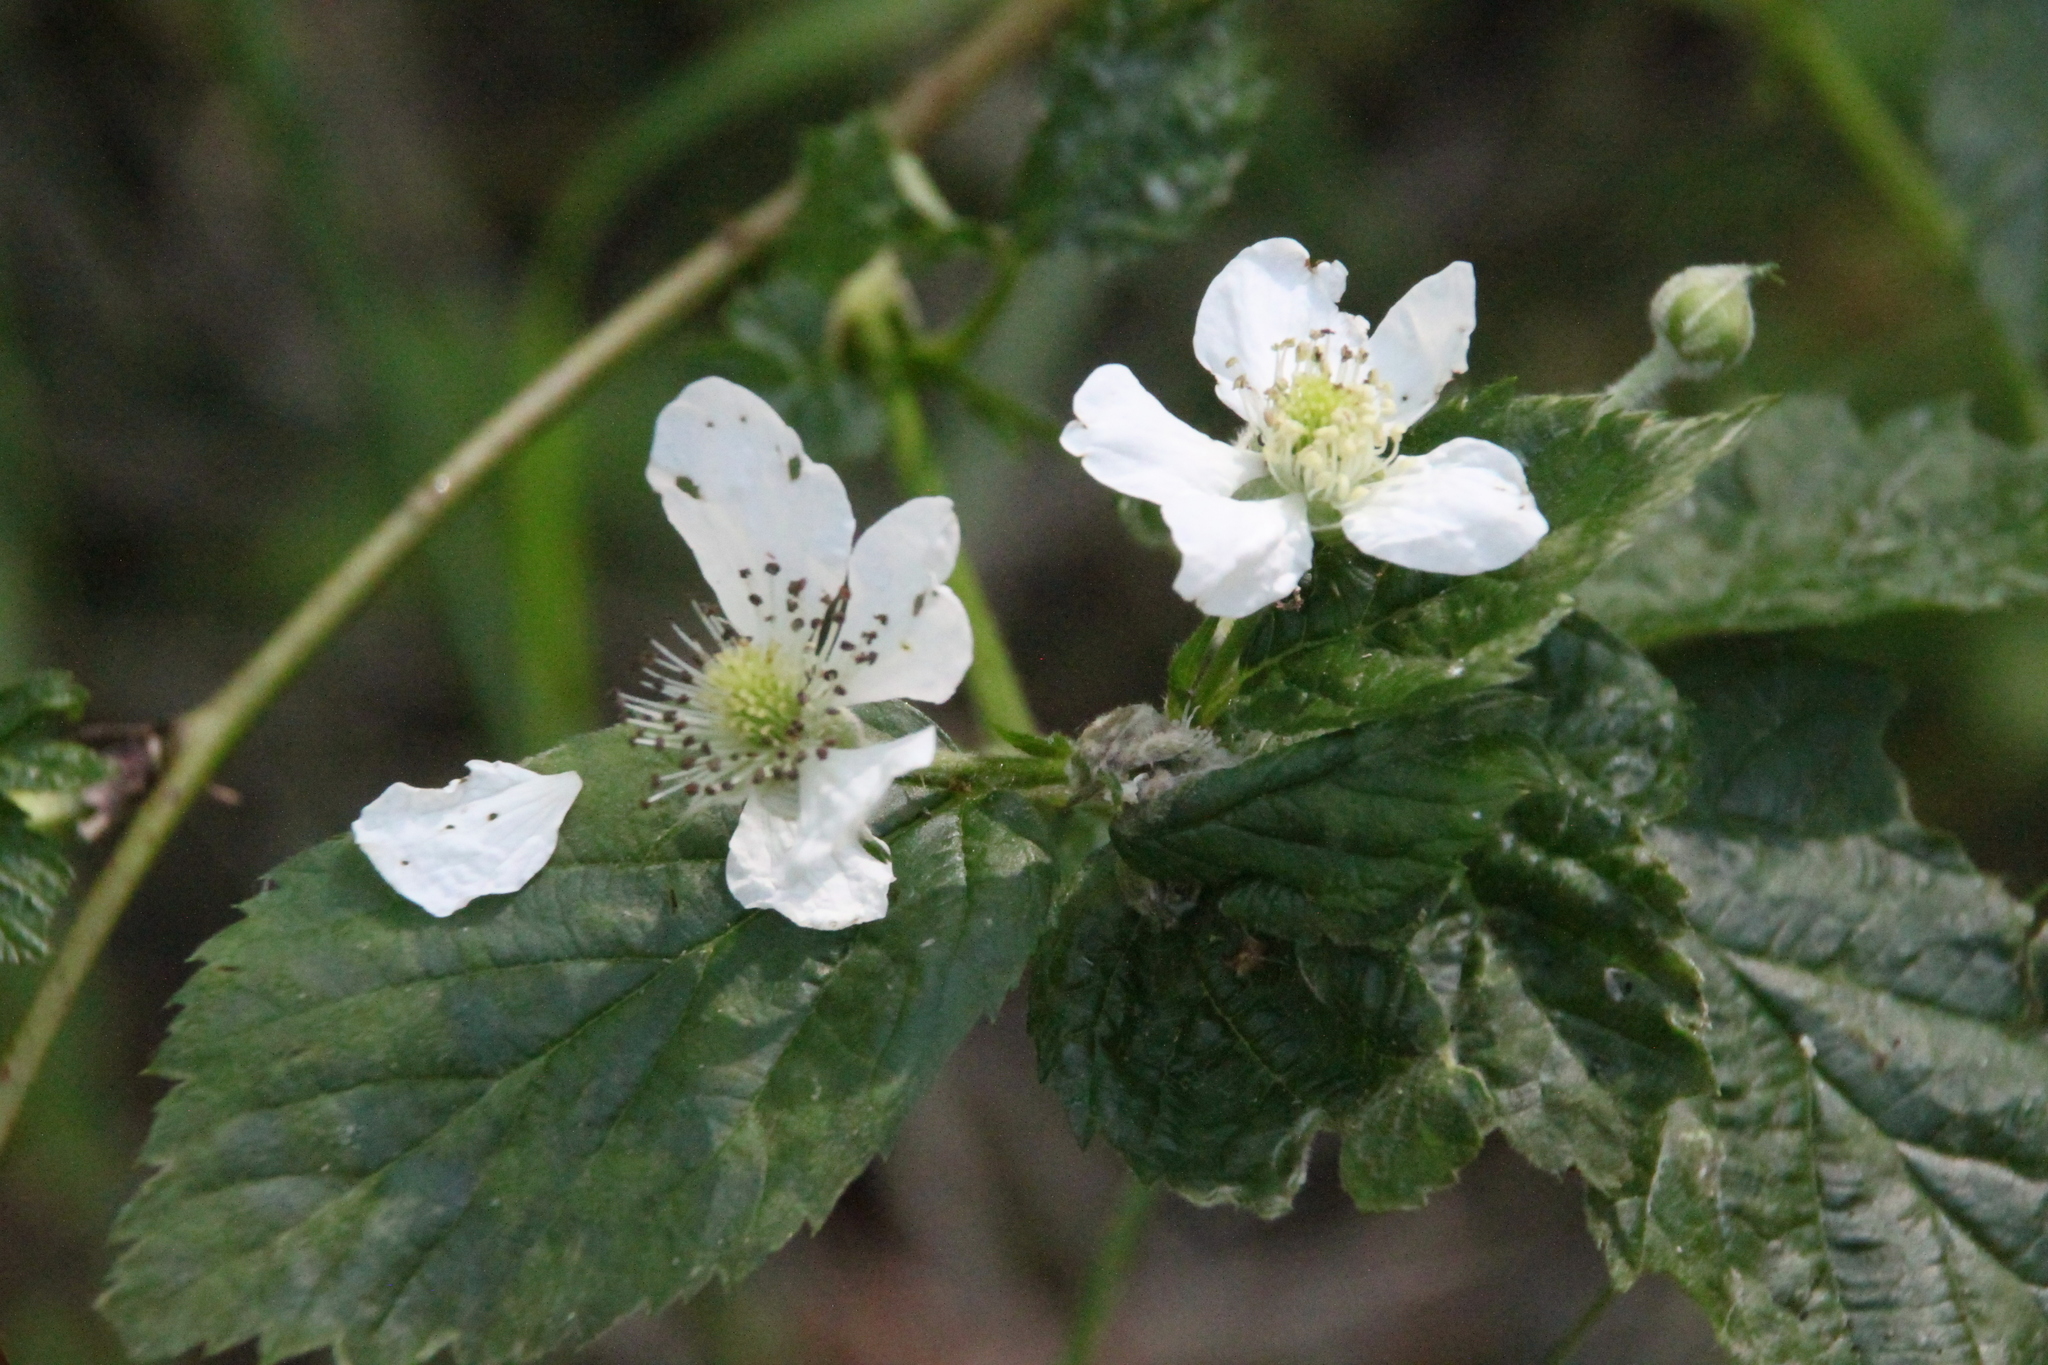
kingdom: Plantae
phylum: Tracheophyta
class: Magnoliopsida
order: Rosales
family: Rosaceae
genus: Rubus
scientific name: Rubus polonicus
